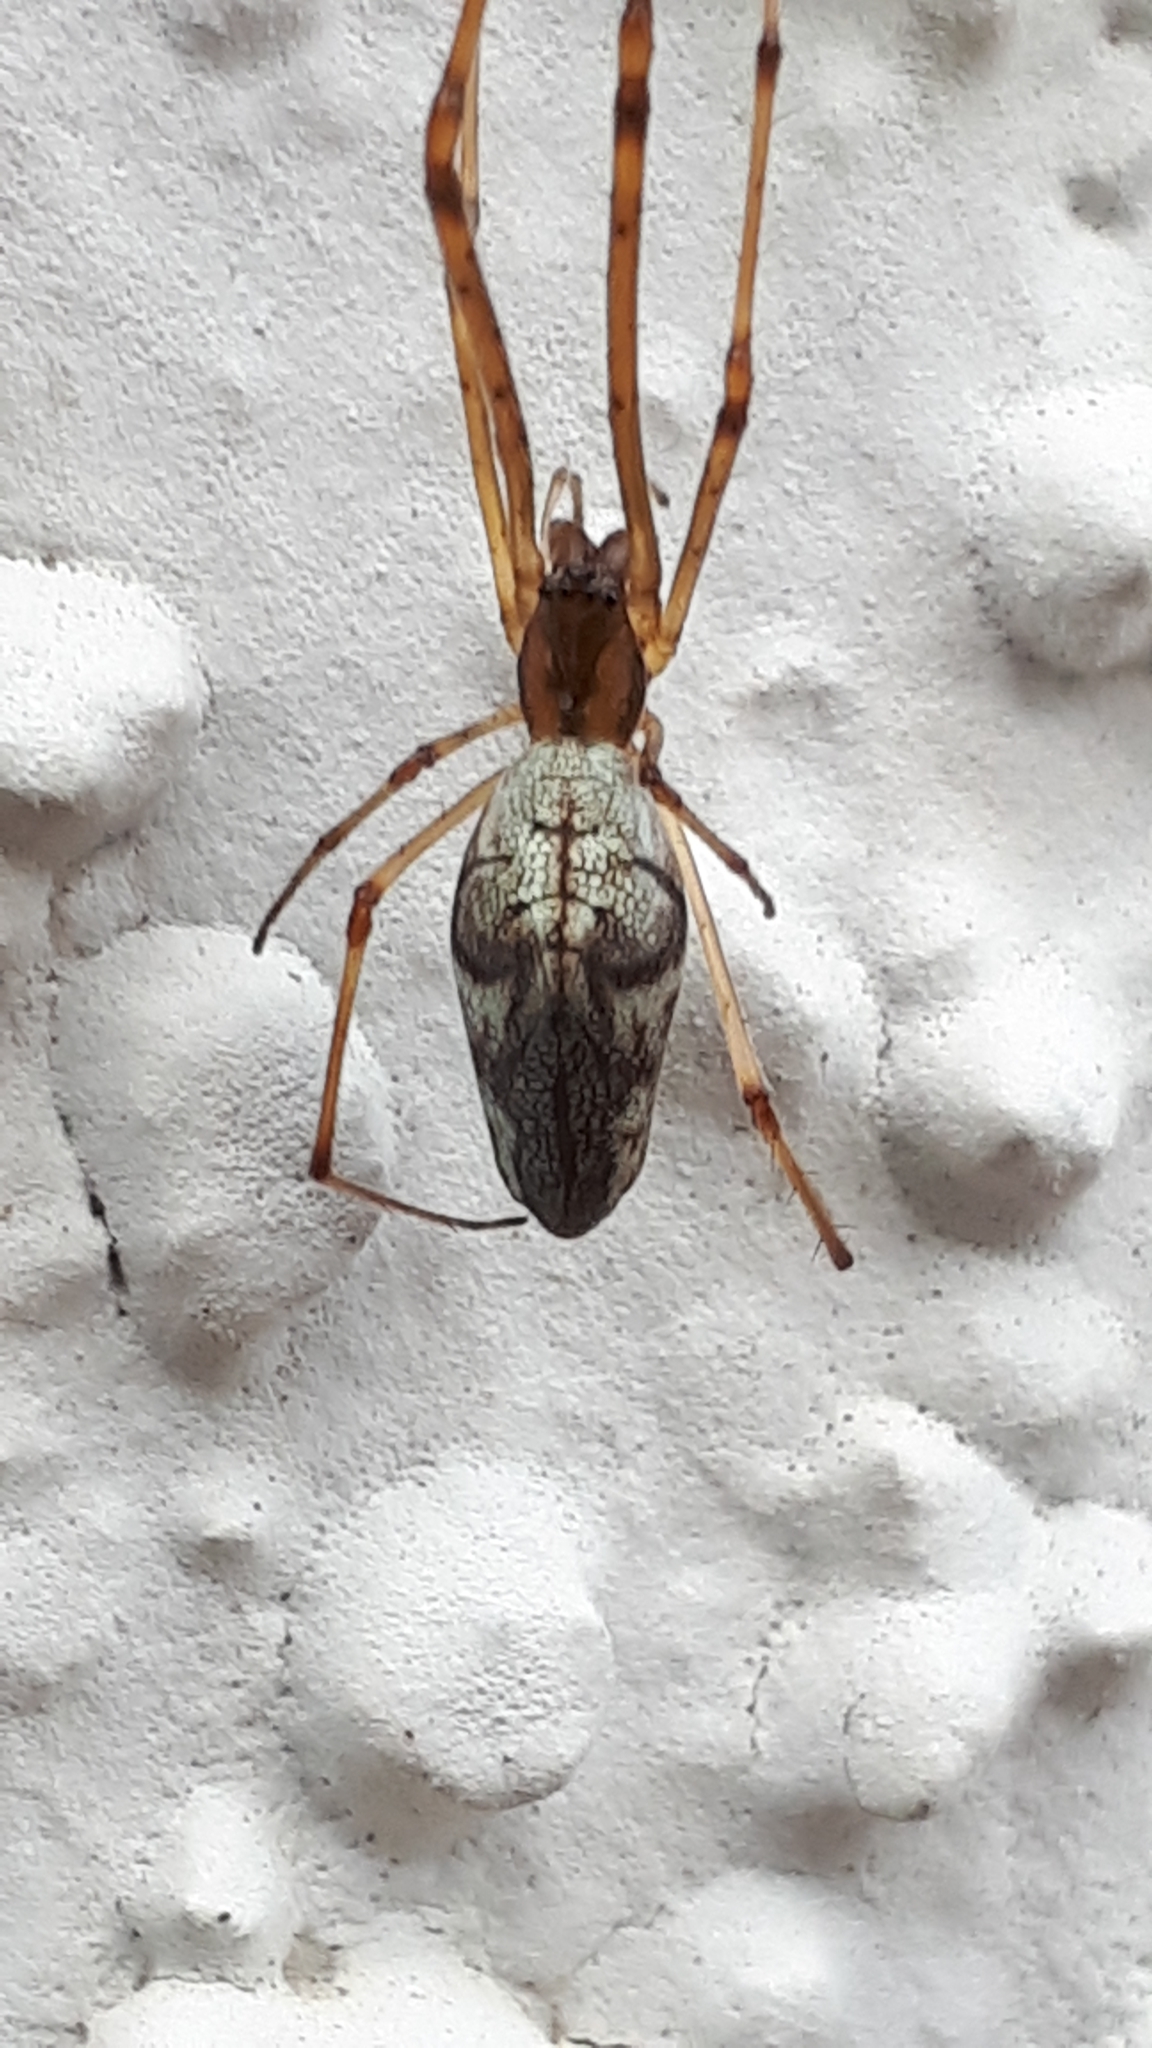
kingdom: Animalia
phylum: Arthropoda
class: Arachnida
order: Araneae
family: Tetragnathidae
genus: Tetragnatha
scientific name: Tetragnatha nigrita
